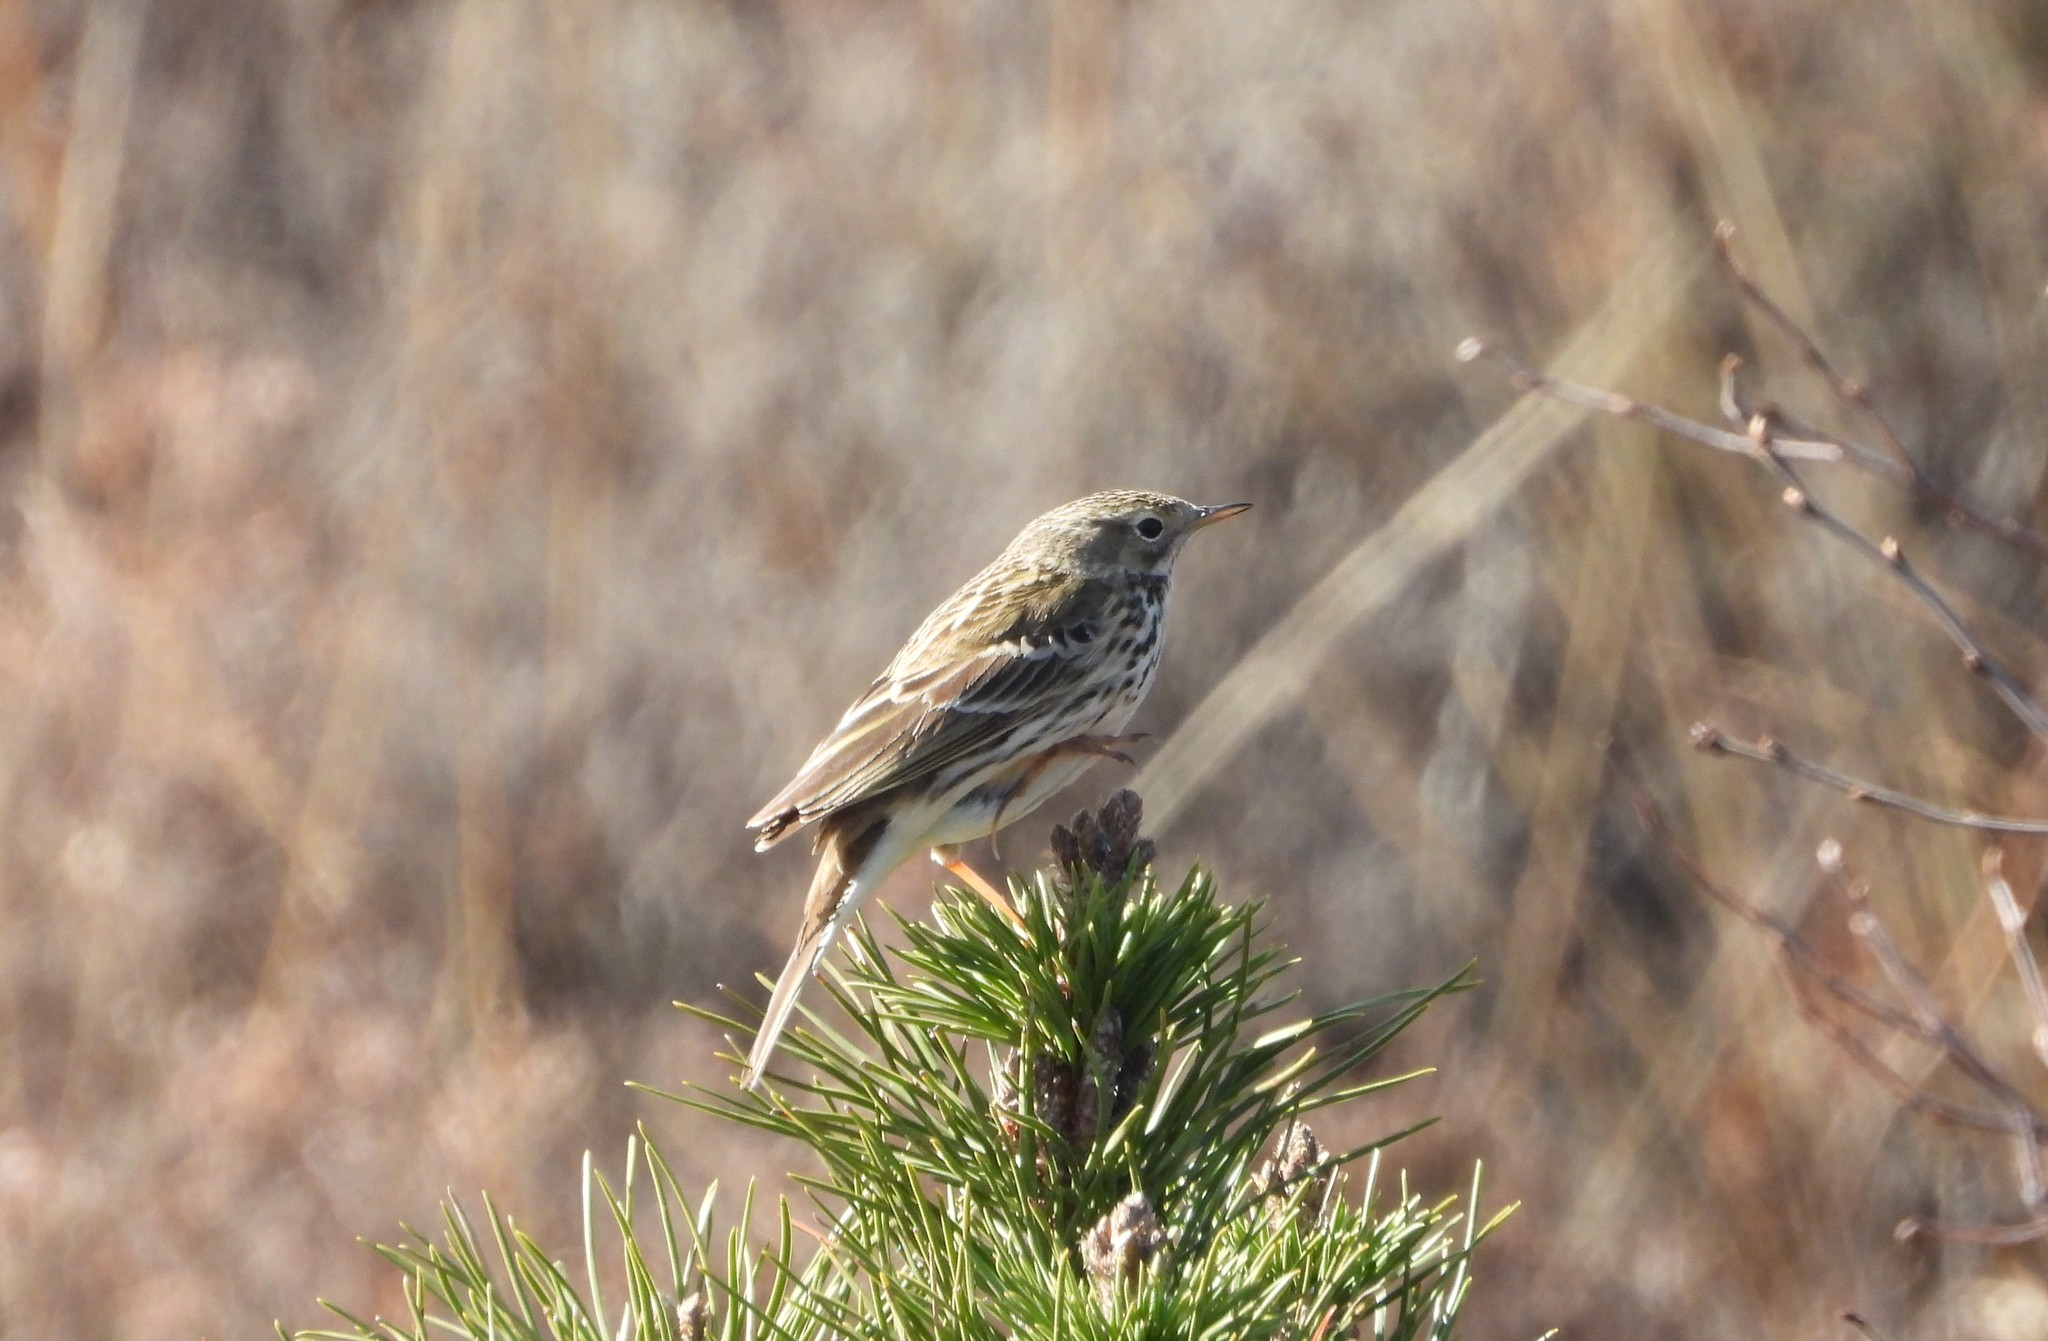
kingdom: Animalia
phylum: Chordata
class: Aves
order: Passeriformes
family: Motacillidae
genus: Anthus
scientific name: Anthus pratensis
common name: Meadow pipit
